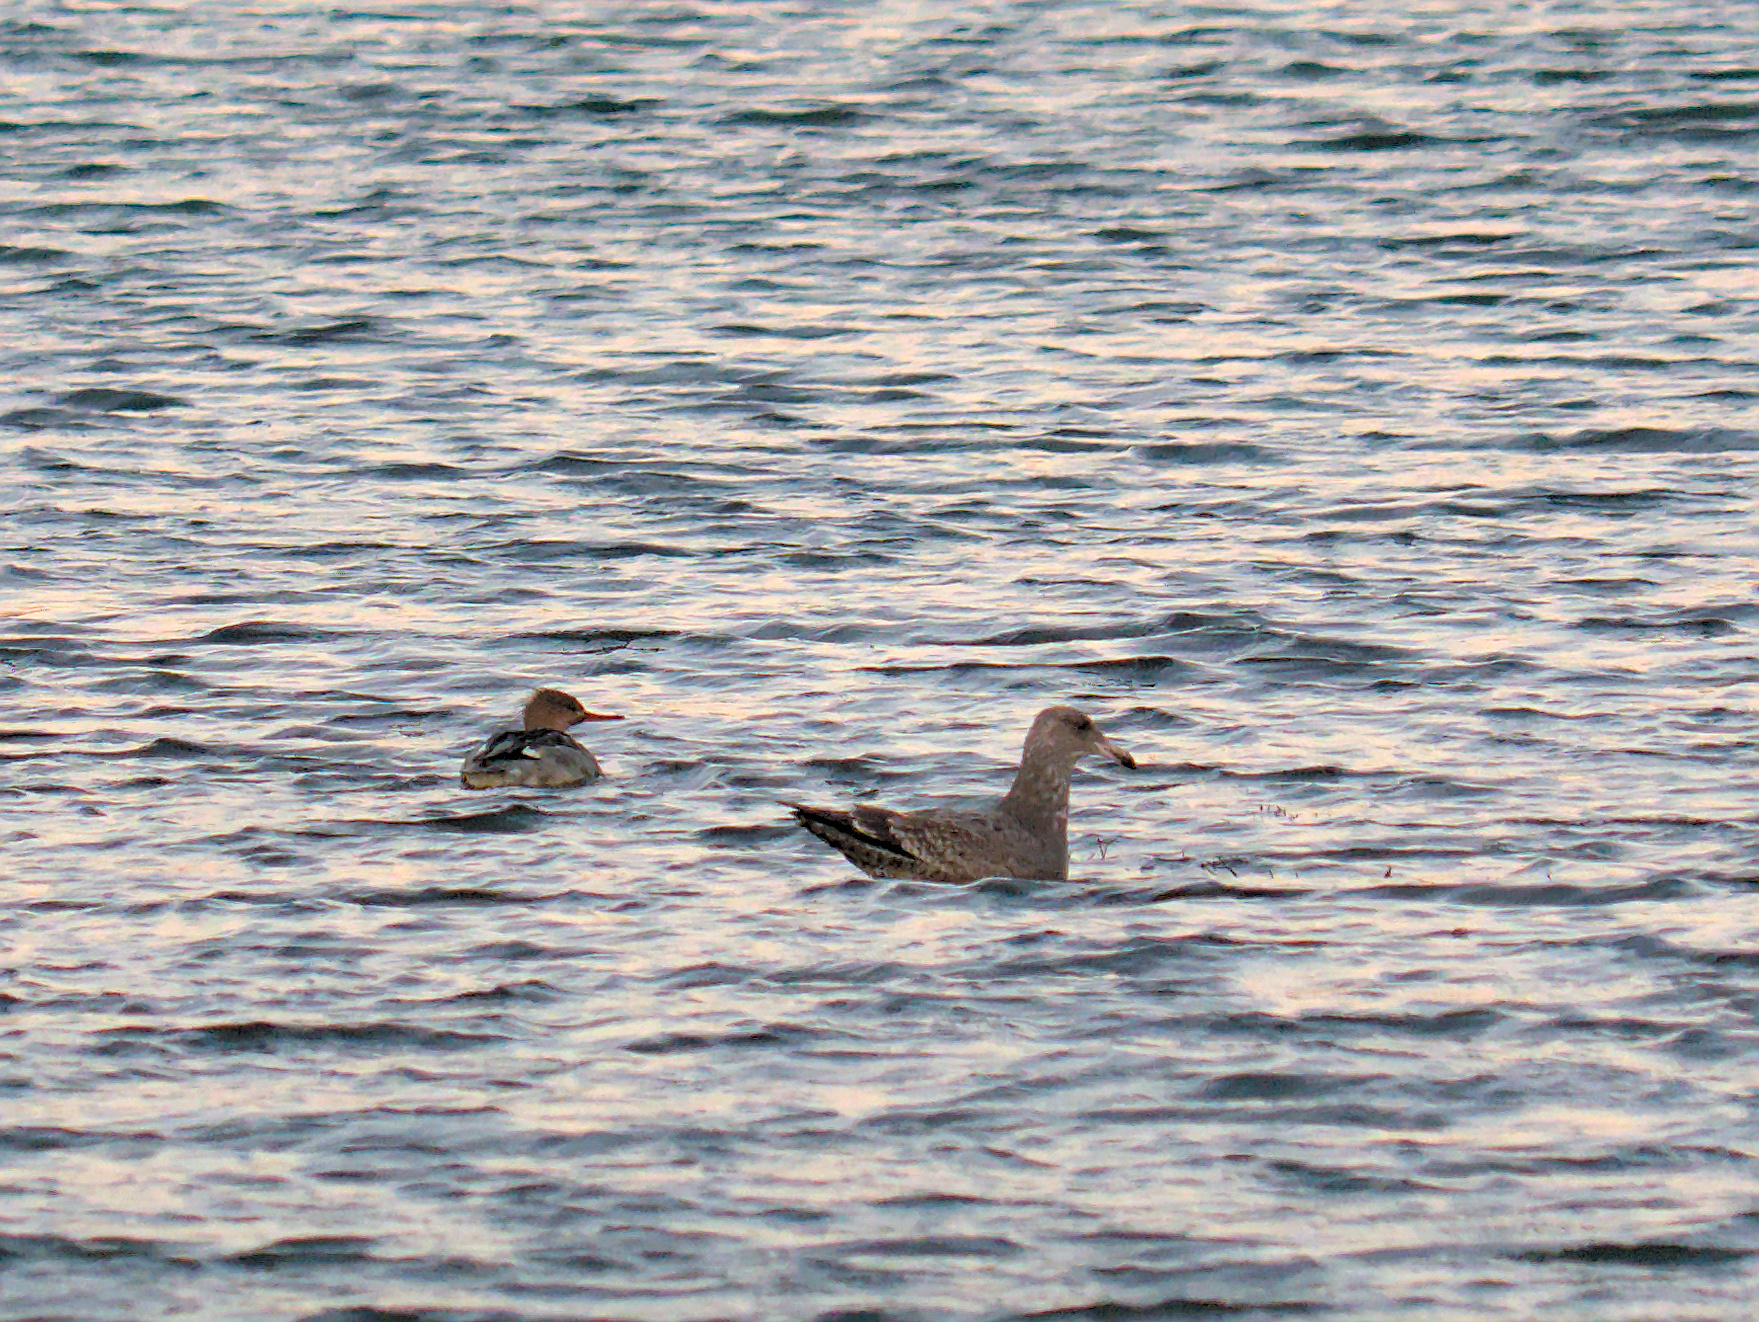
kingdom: Animalia
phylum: Chordata
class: Aves
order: Anseriformes
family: Anatidae
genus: Mergus
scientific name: Mergus serrator
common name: Red-breasted merganser
